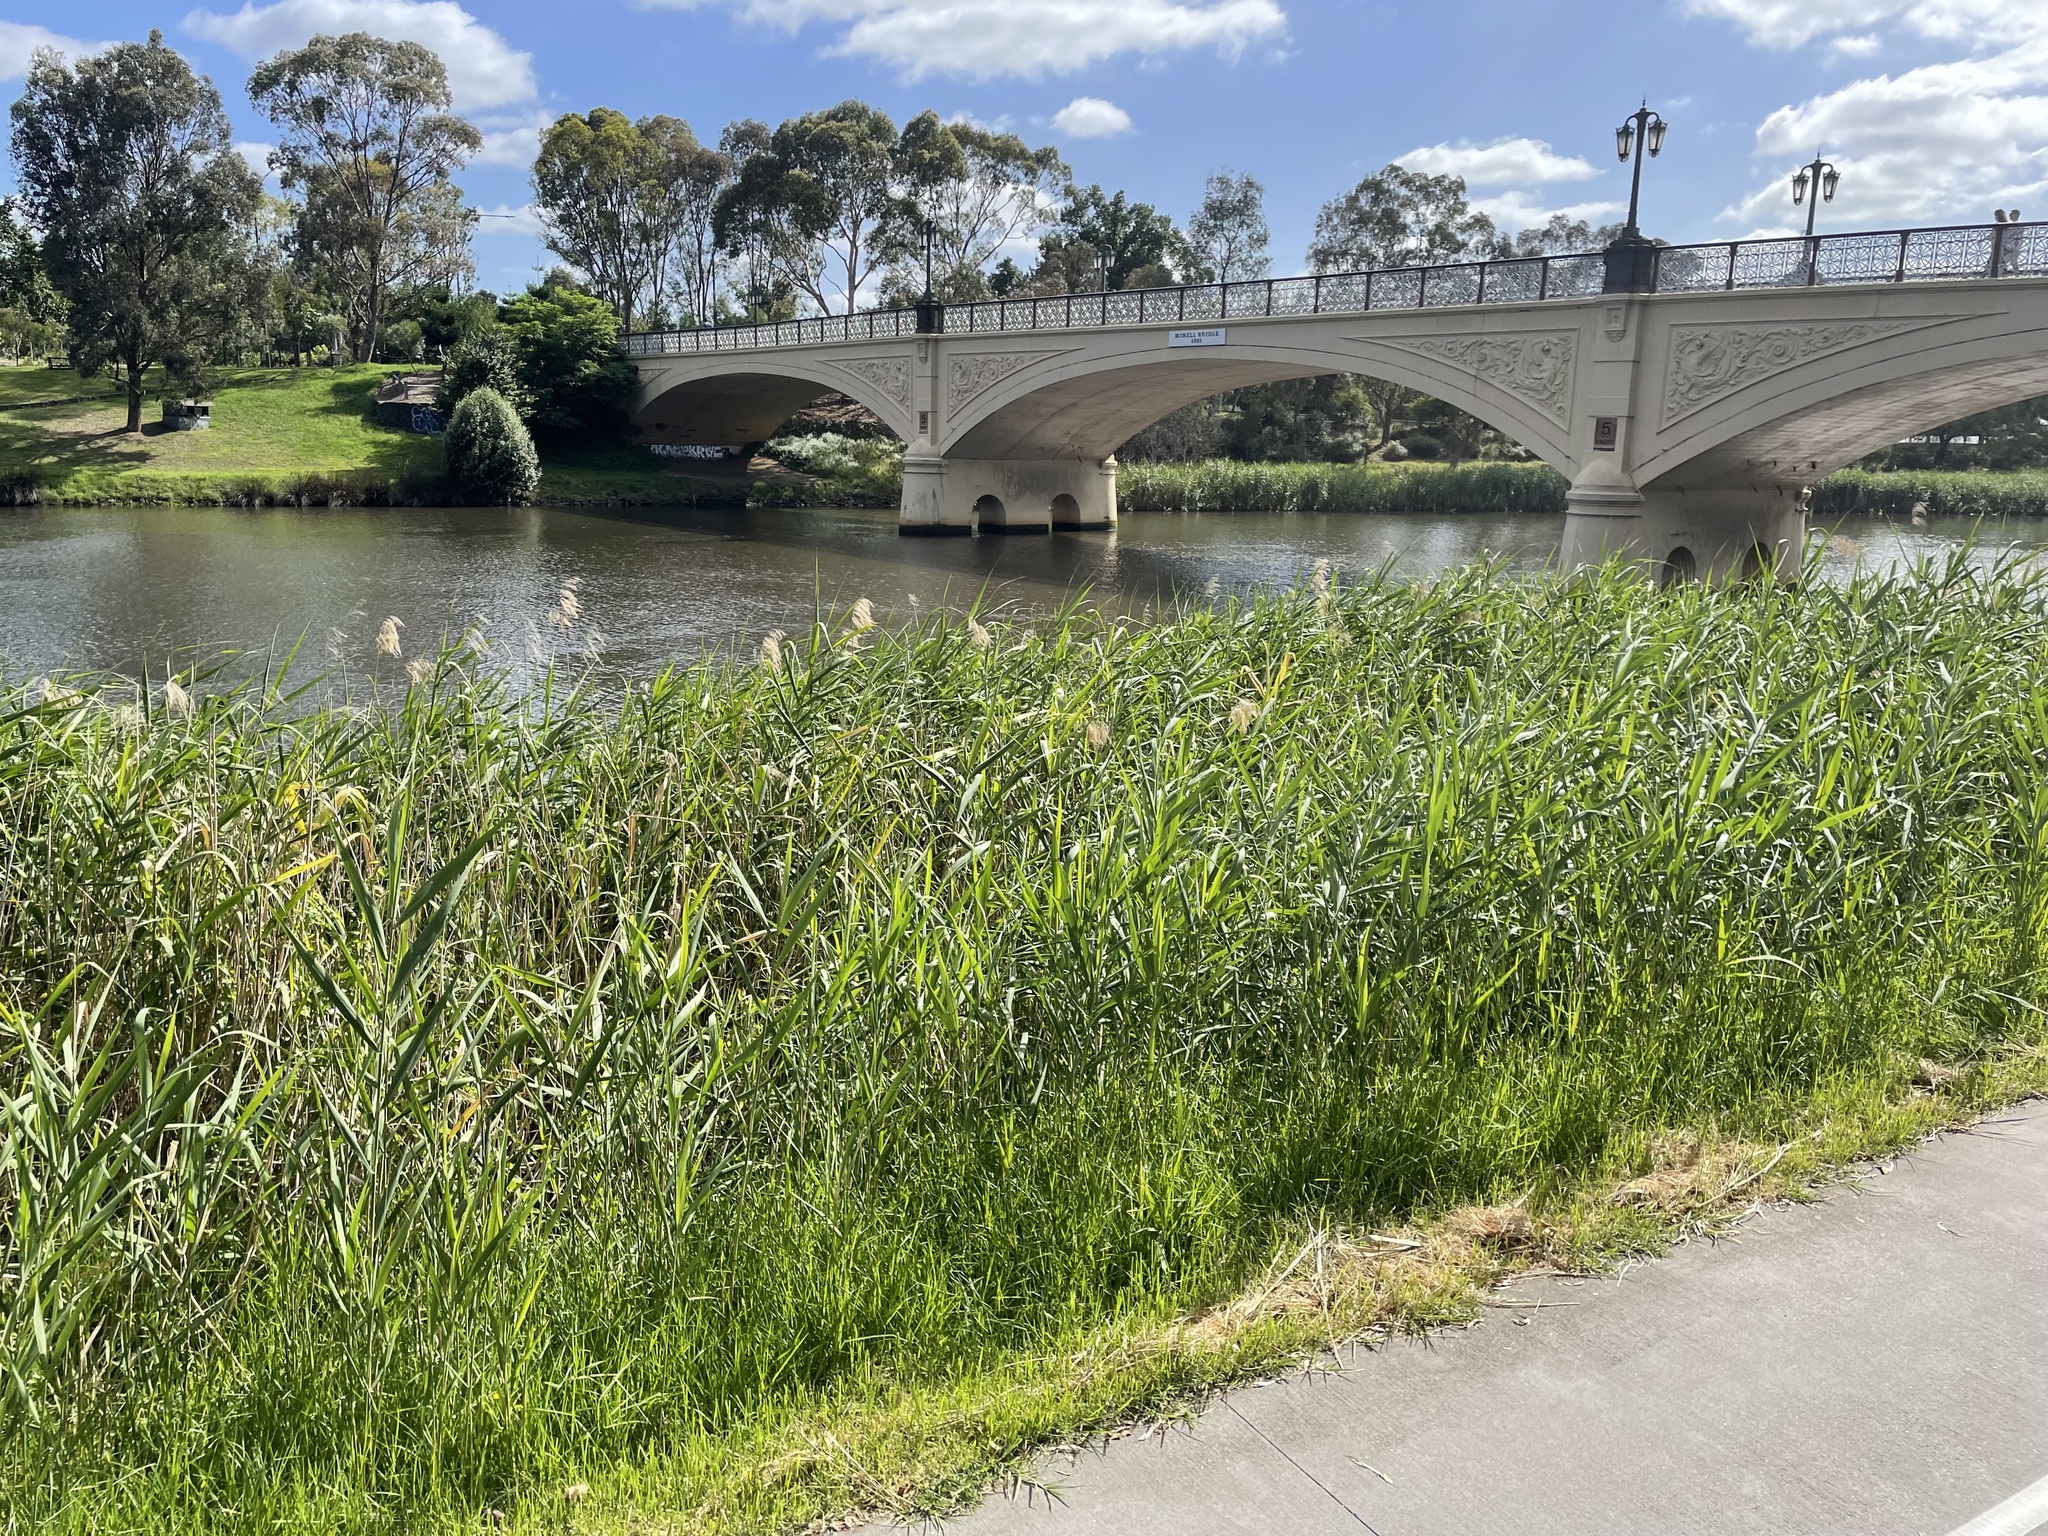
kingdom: Plantae
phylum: Tracheophyta
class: Liliopsida
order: Poales
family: Poaceae
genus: Phragmites
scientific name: Phragmites australis
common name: Common reed
